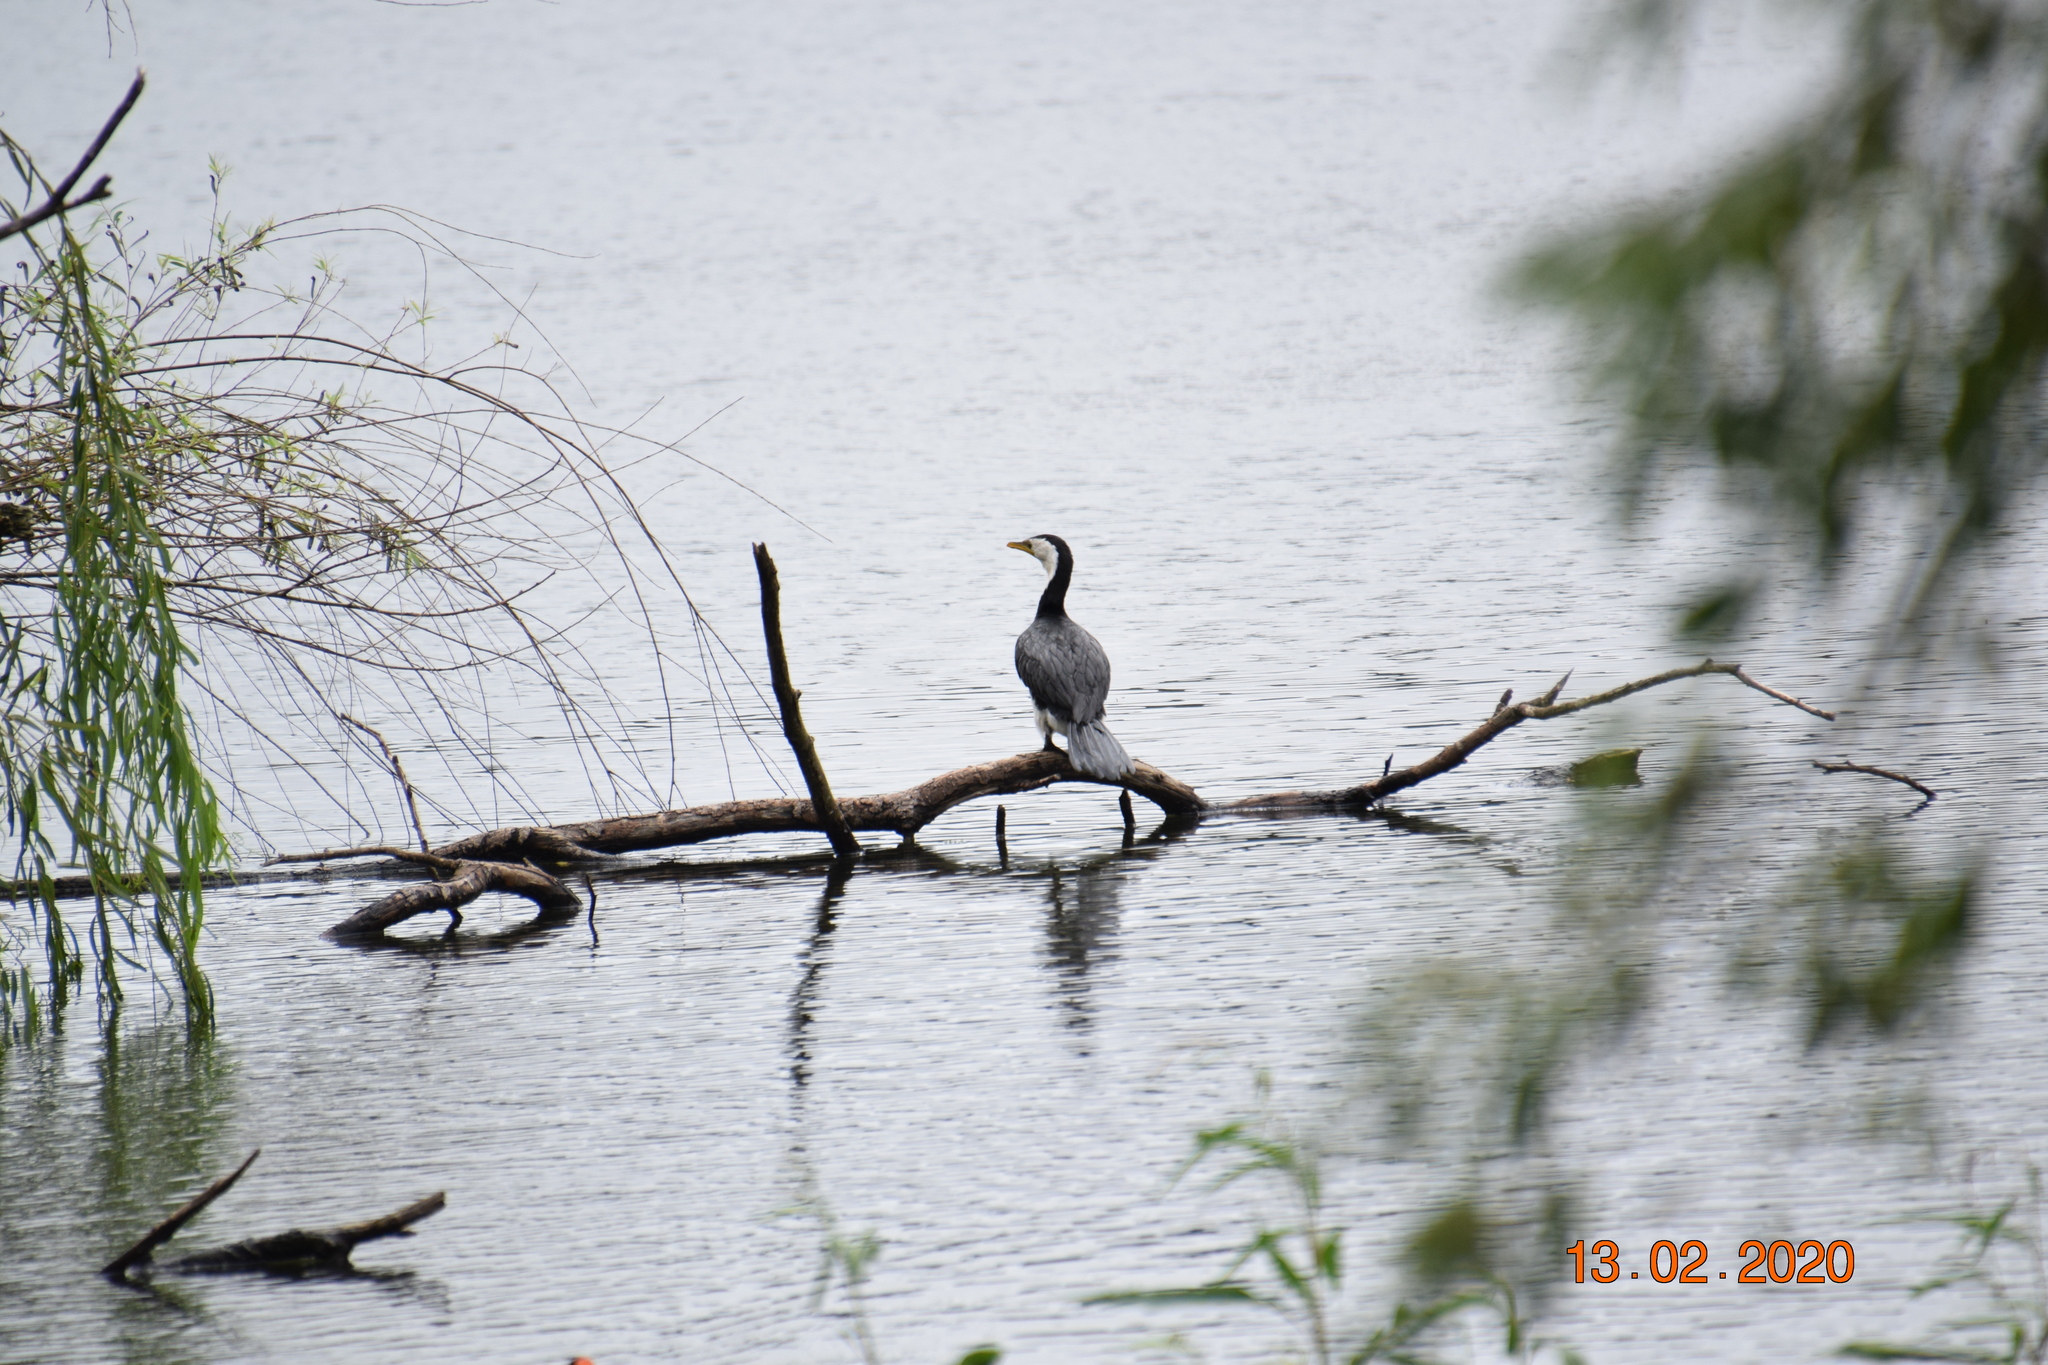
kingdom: Animalia
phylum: Chordata
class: Aves
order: Suliformes
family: Phalacrocoracidae
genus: Microcarbo
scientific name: Microcarbo melanoleucos
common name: Little pied cormorant
